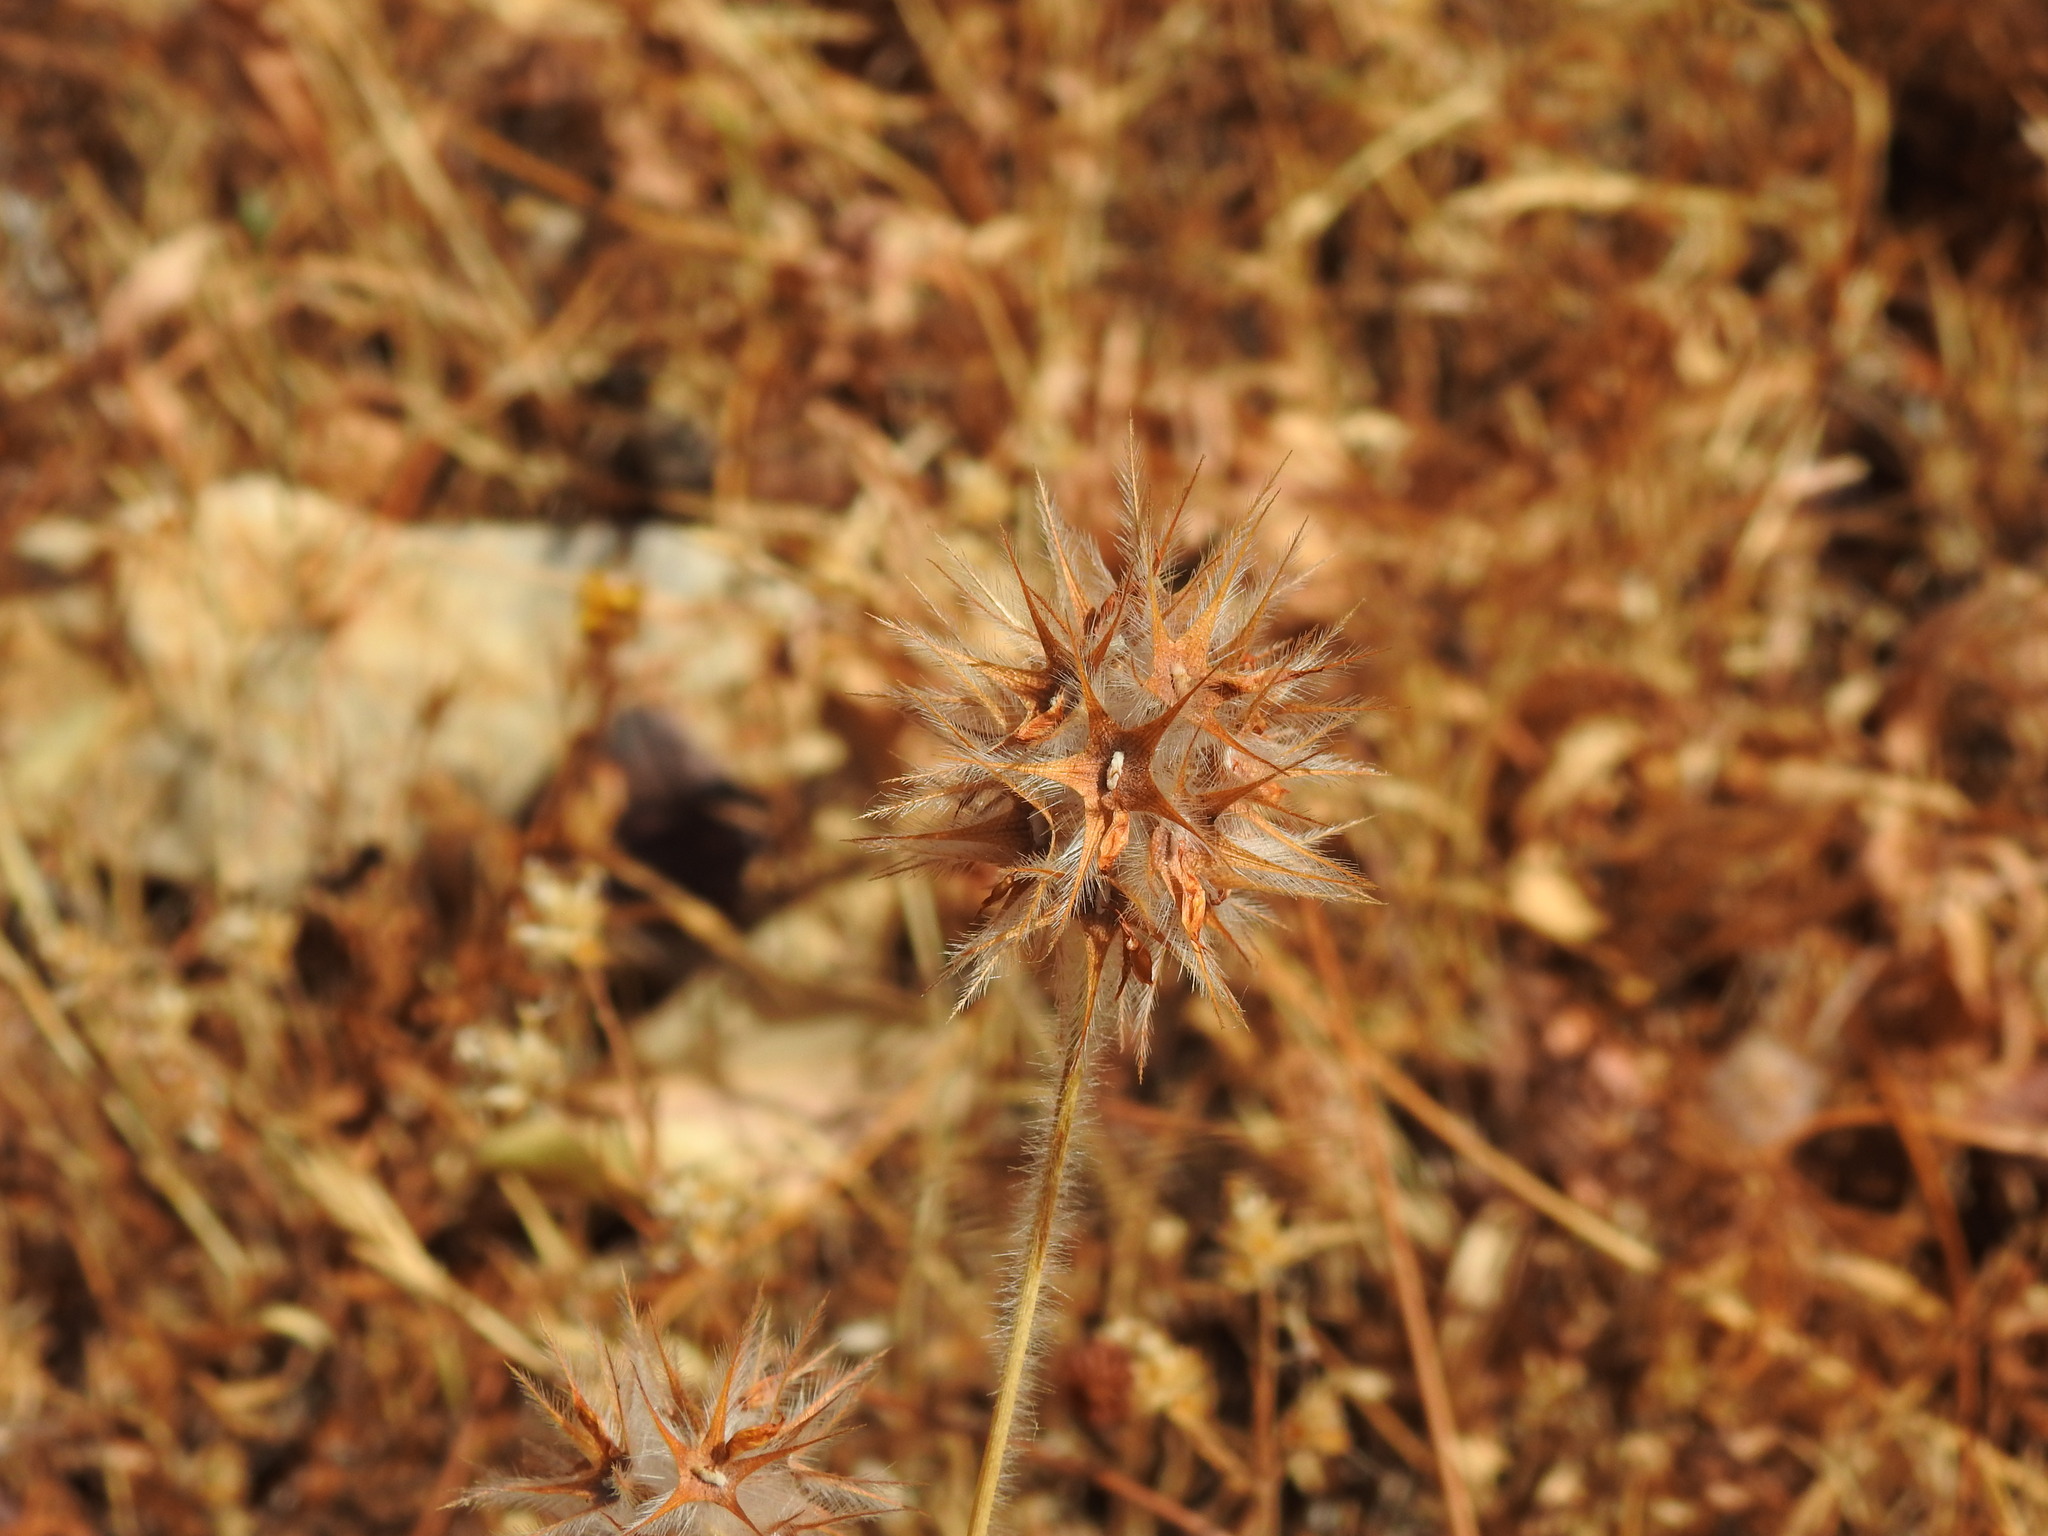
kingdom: Plantae
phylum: Tracheophyta
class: Magnoliopsida
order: Fabales
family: Fabaceae
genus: Trifolium
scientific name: Trifolium stellatum
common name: Starry clover
